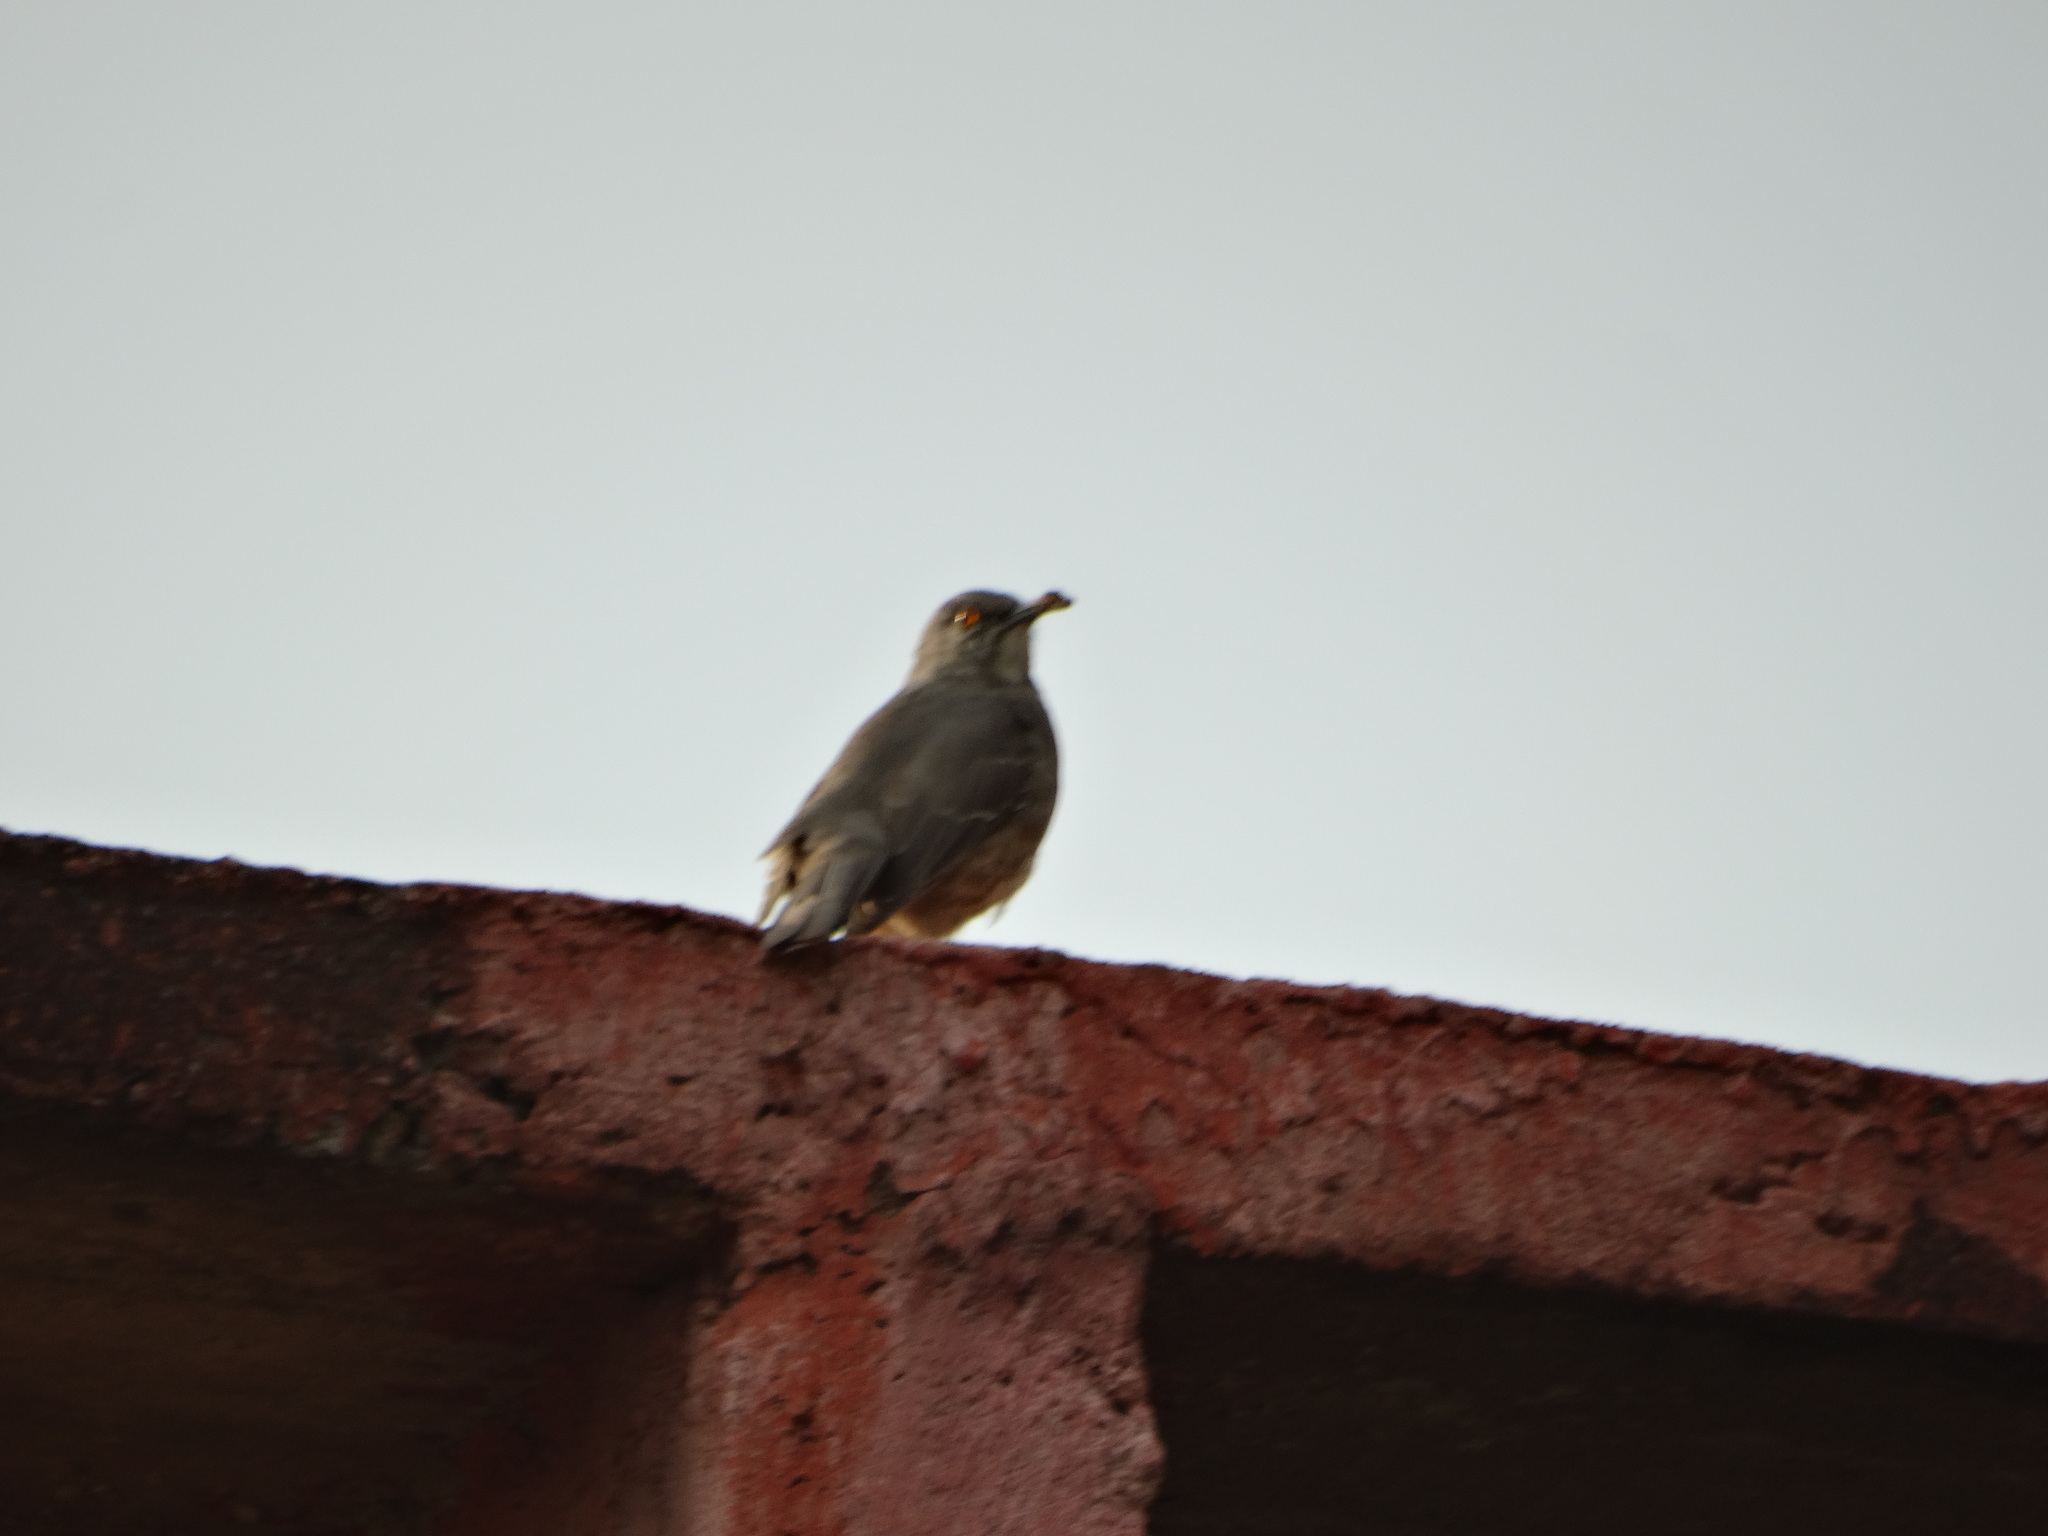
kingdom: Animalia
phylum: Chordata
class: Aves
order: Passeriformes
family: Mimidae
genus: Toxostoma
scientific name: Toxostoma curvirostre
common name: Curve-billed thrasher
